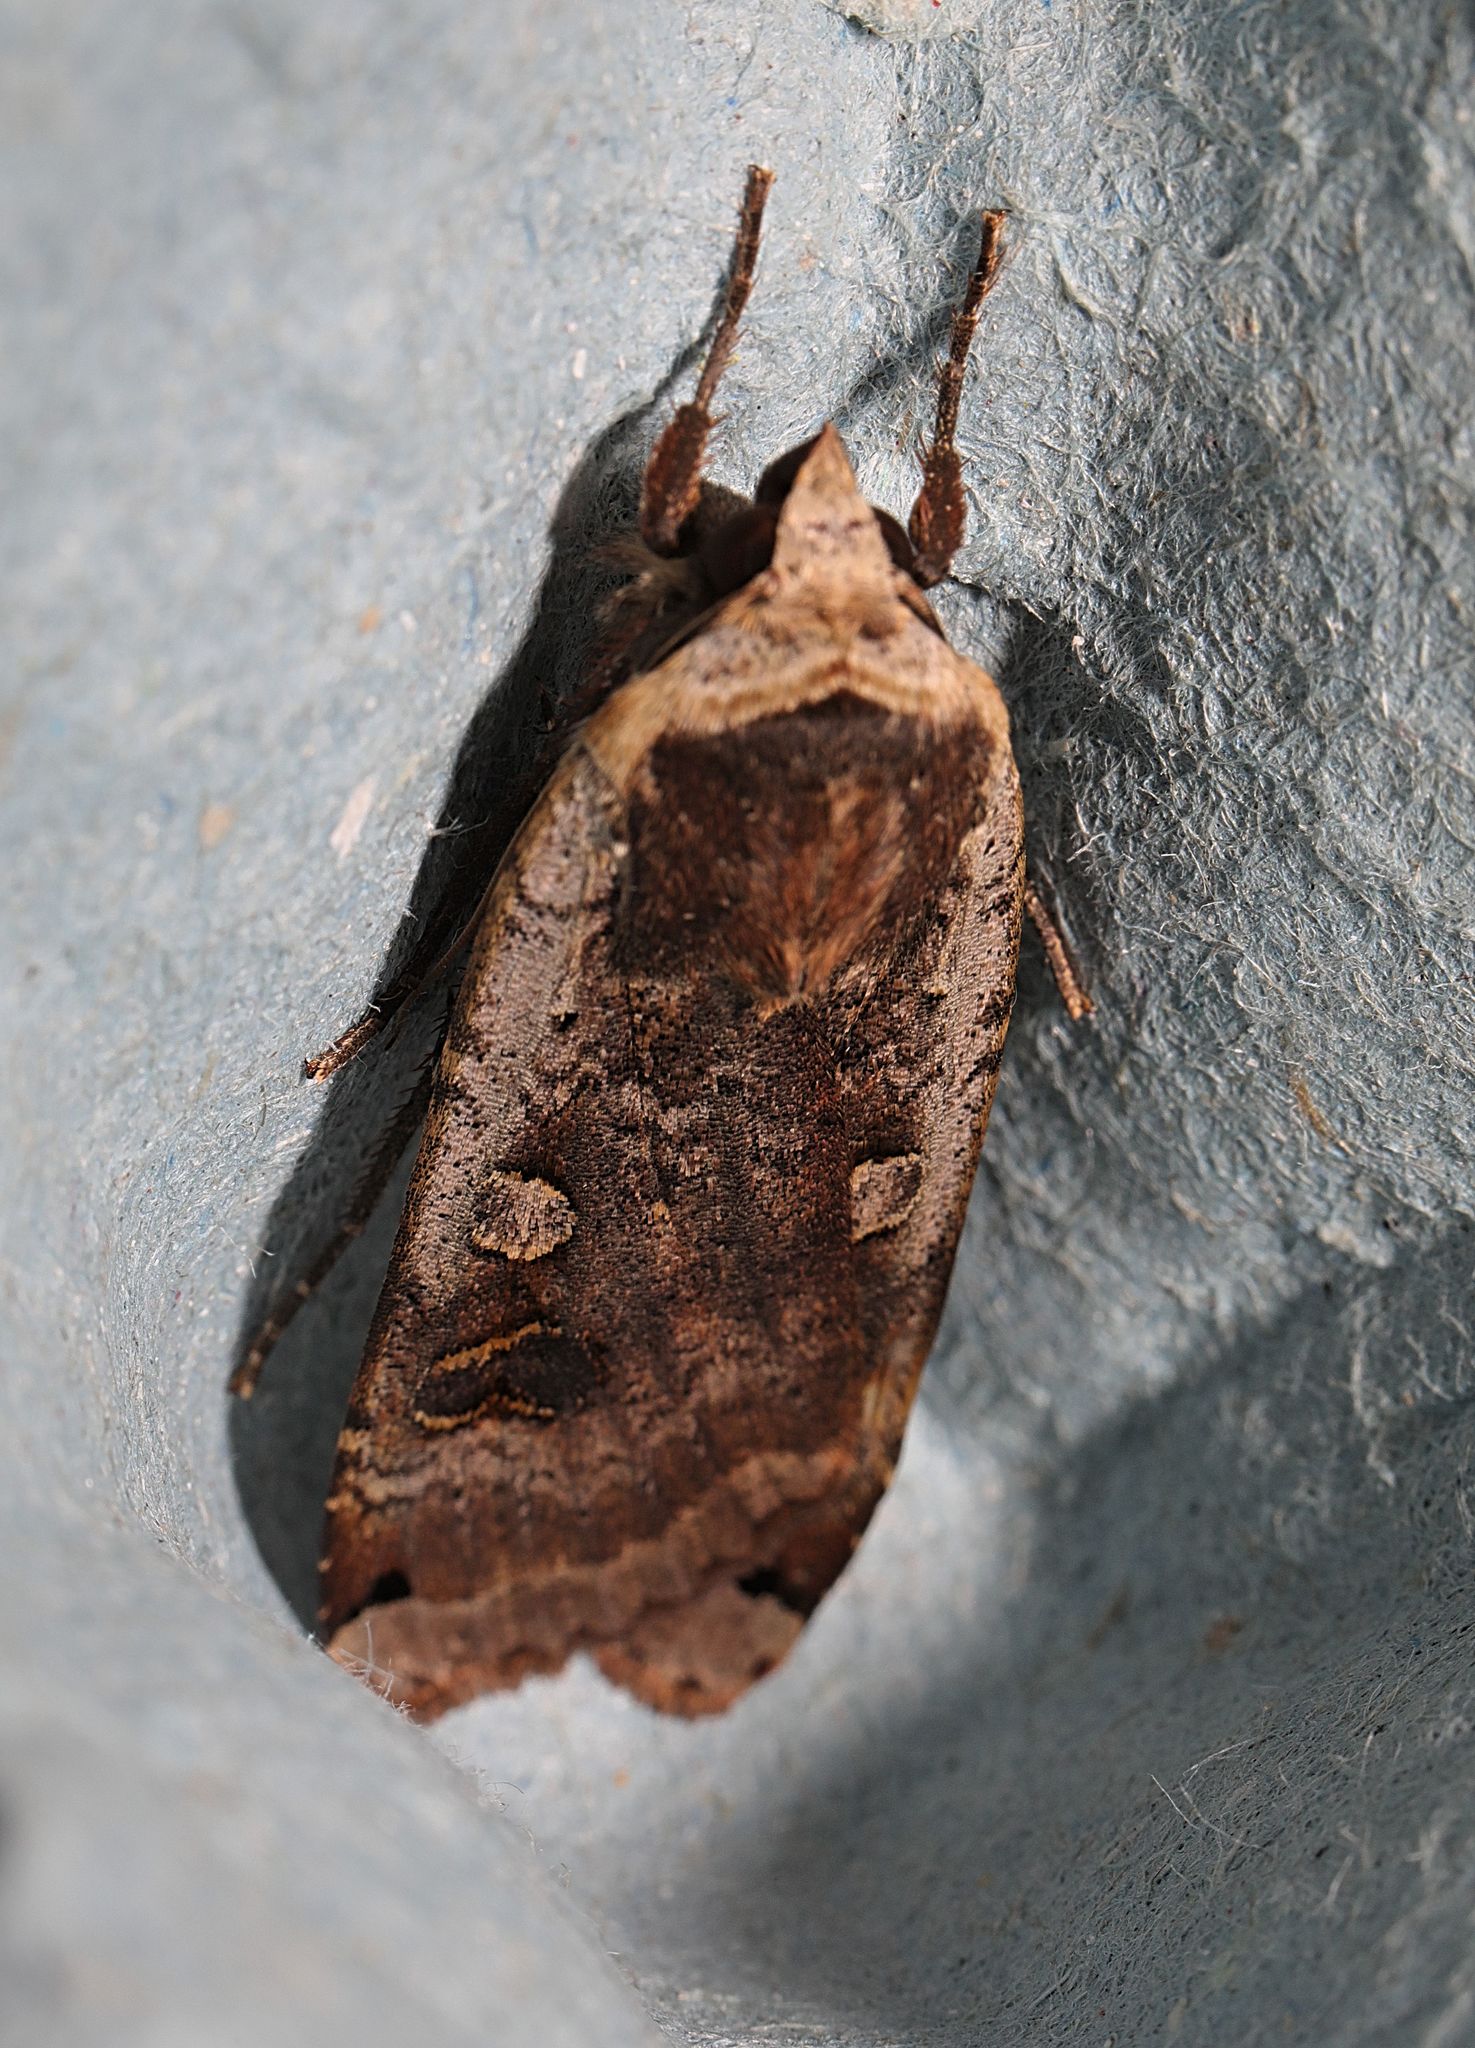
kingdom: Animalia
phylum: Arthropoda
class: Insecta
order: Lepidoptera
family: Noctuidae
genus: Noctua
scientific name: Noctua pronuba
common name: Large yellow underwing
